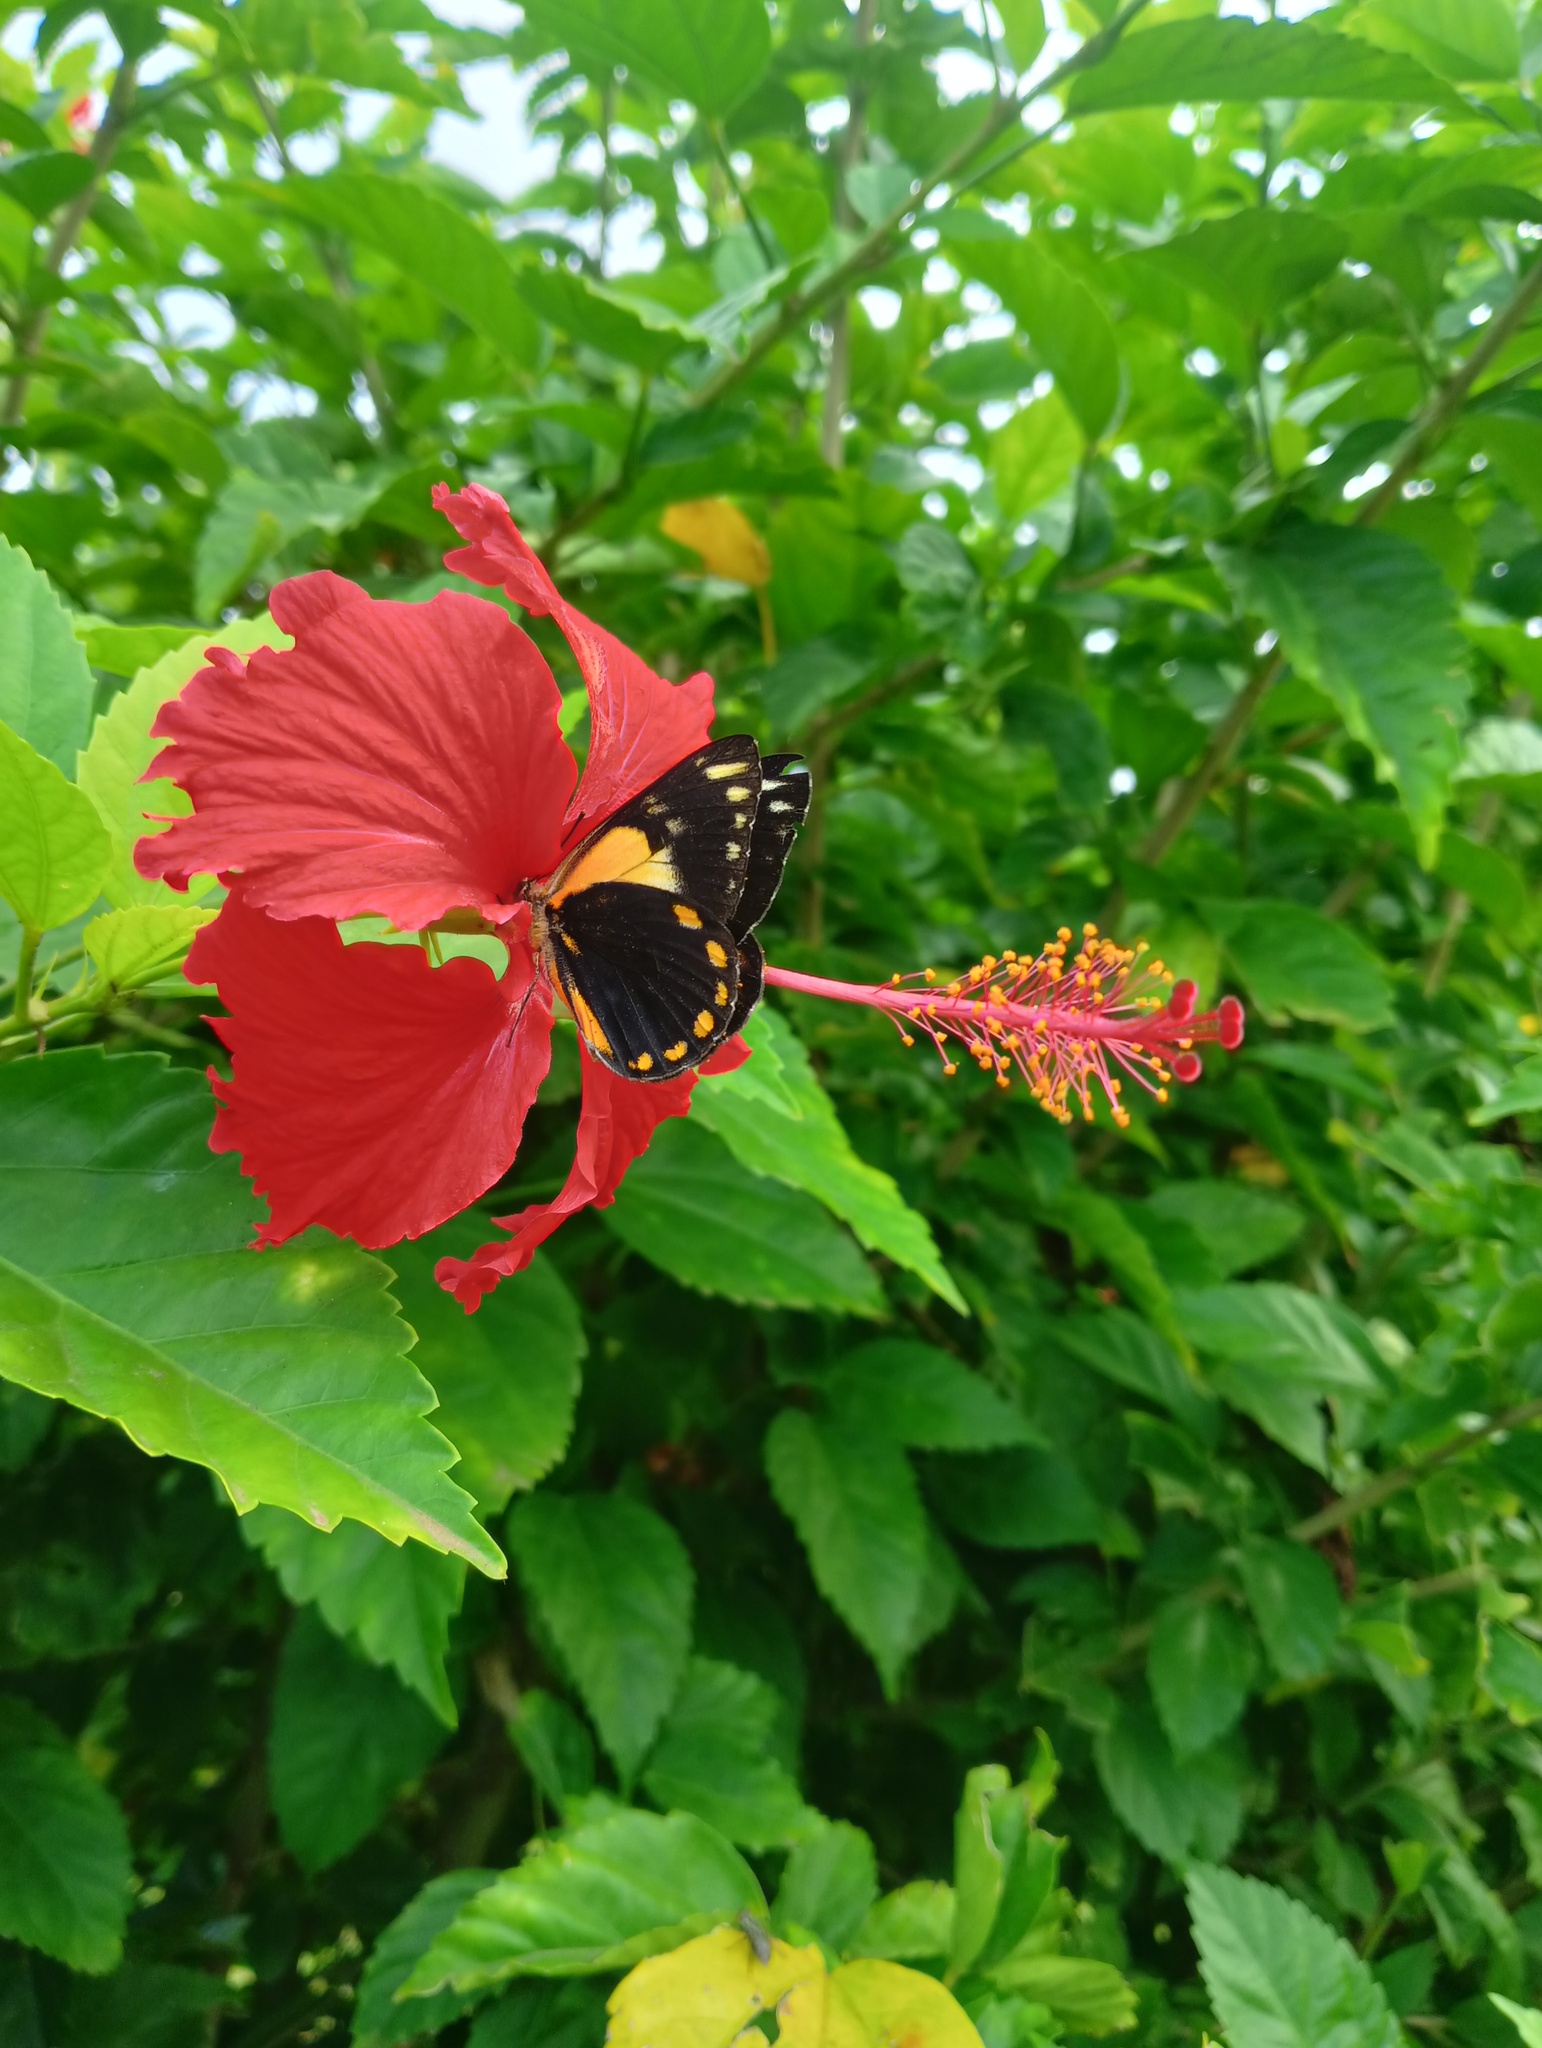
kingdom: Animalia
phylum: Arthropoda
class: Insecta
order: Lepidoptera
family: Pieridae
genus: Belenois
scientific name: Belenois java
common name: Caper white
